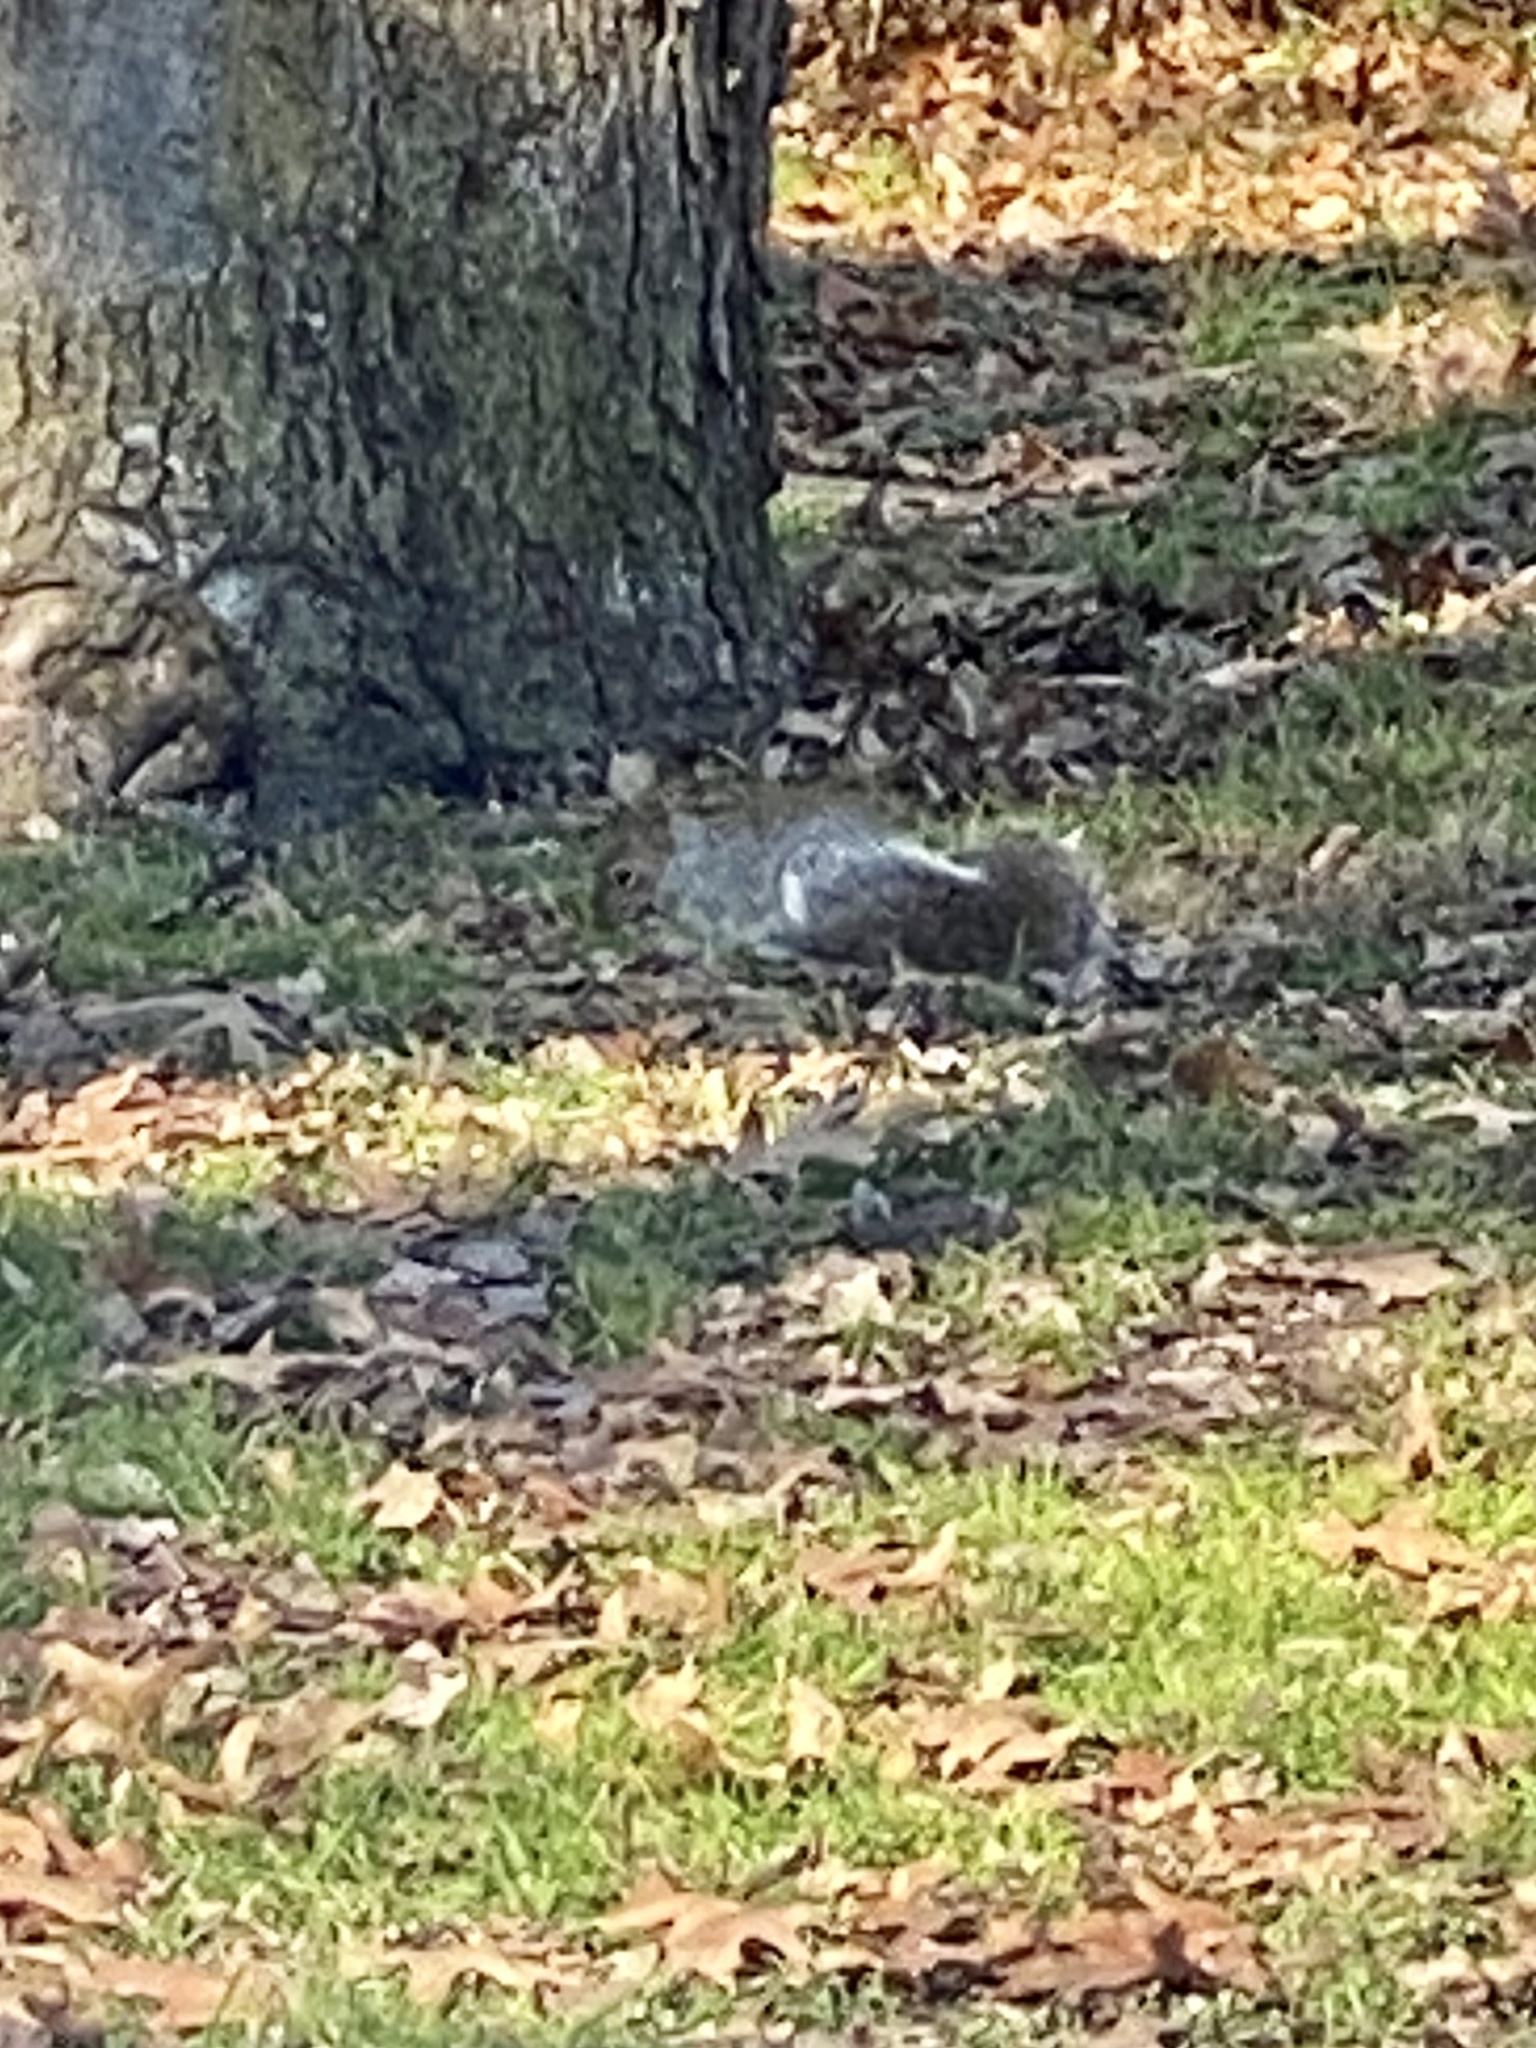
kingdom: Animalia
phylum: Chordata
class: Mammalia
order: Rodentia
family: Sciuridae
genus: Sciurus
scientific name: Sciurus carolinensis
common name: Eastern gray squirrel
